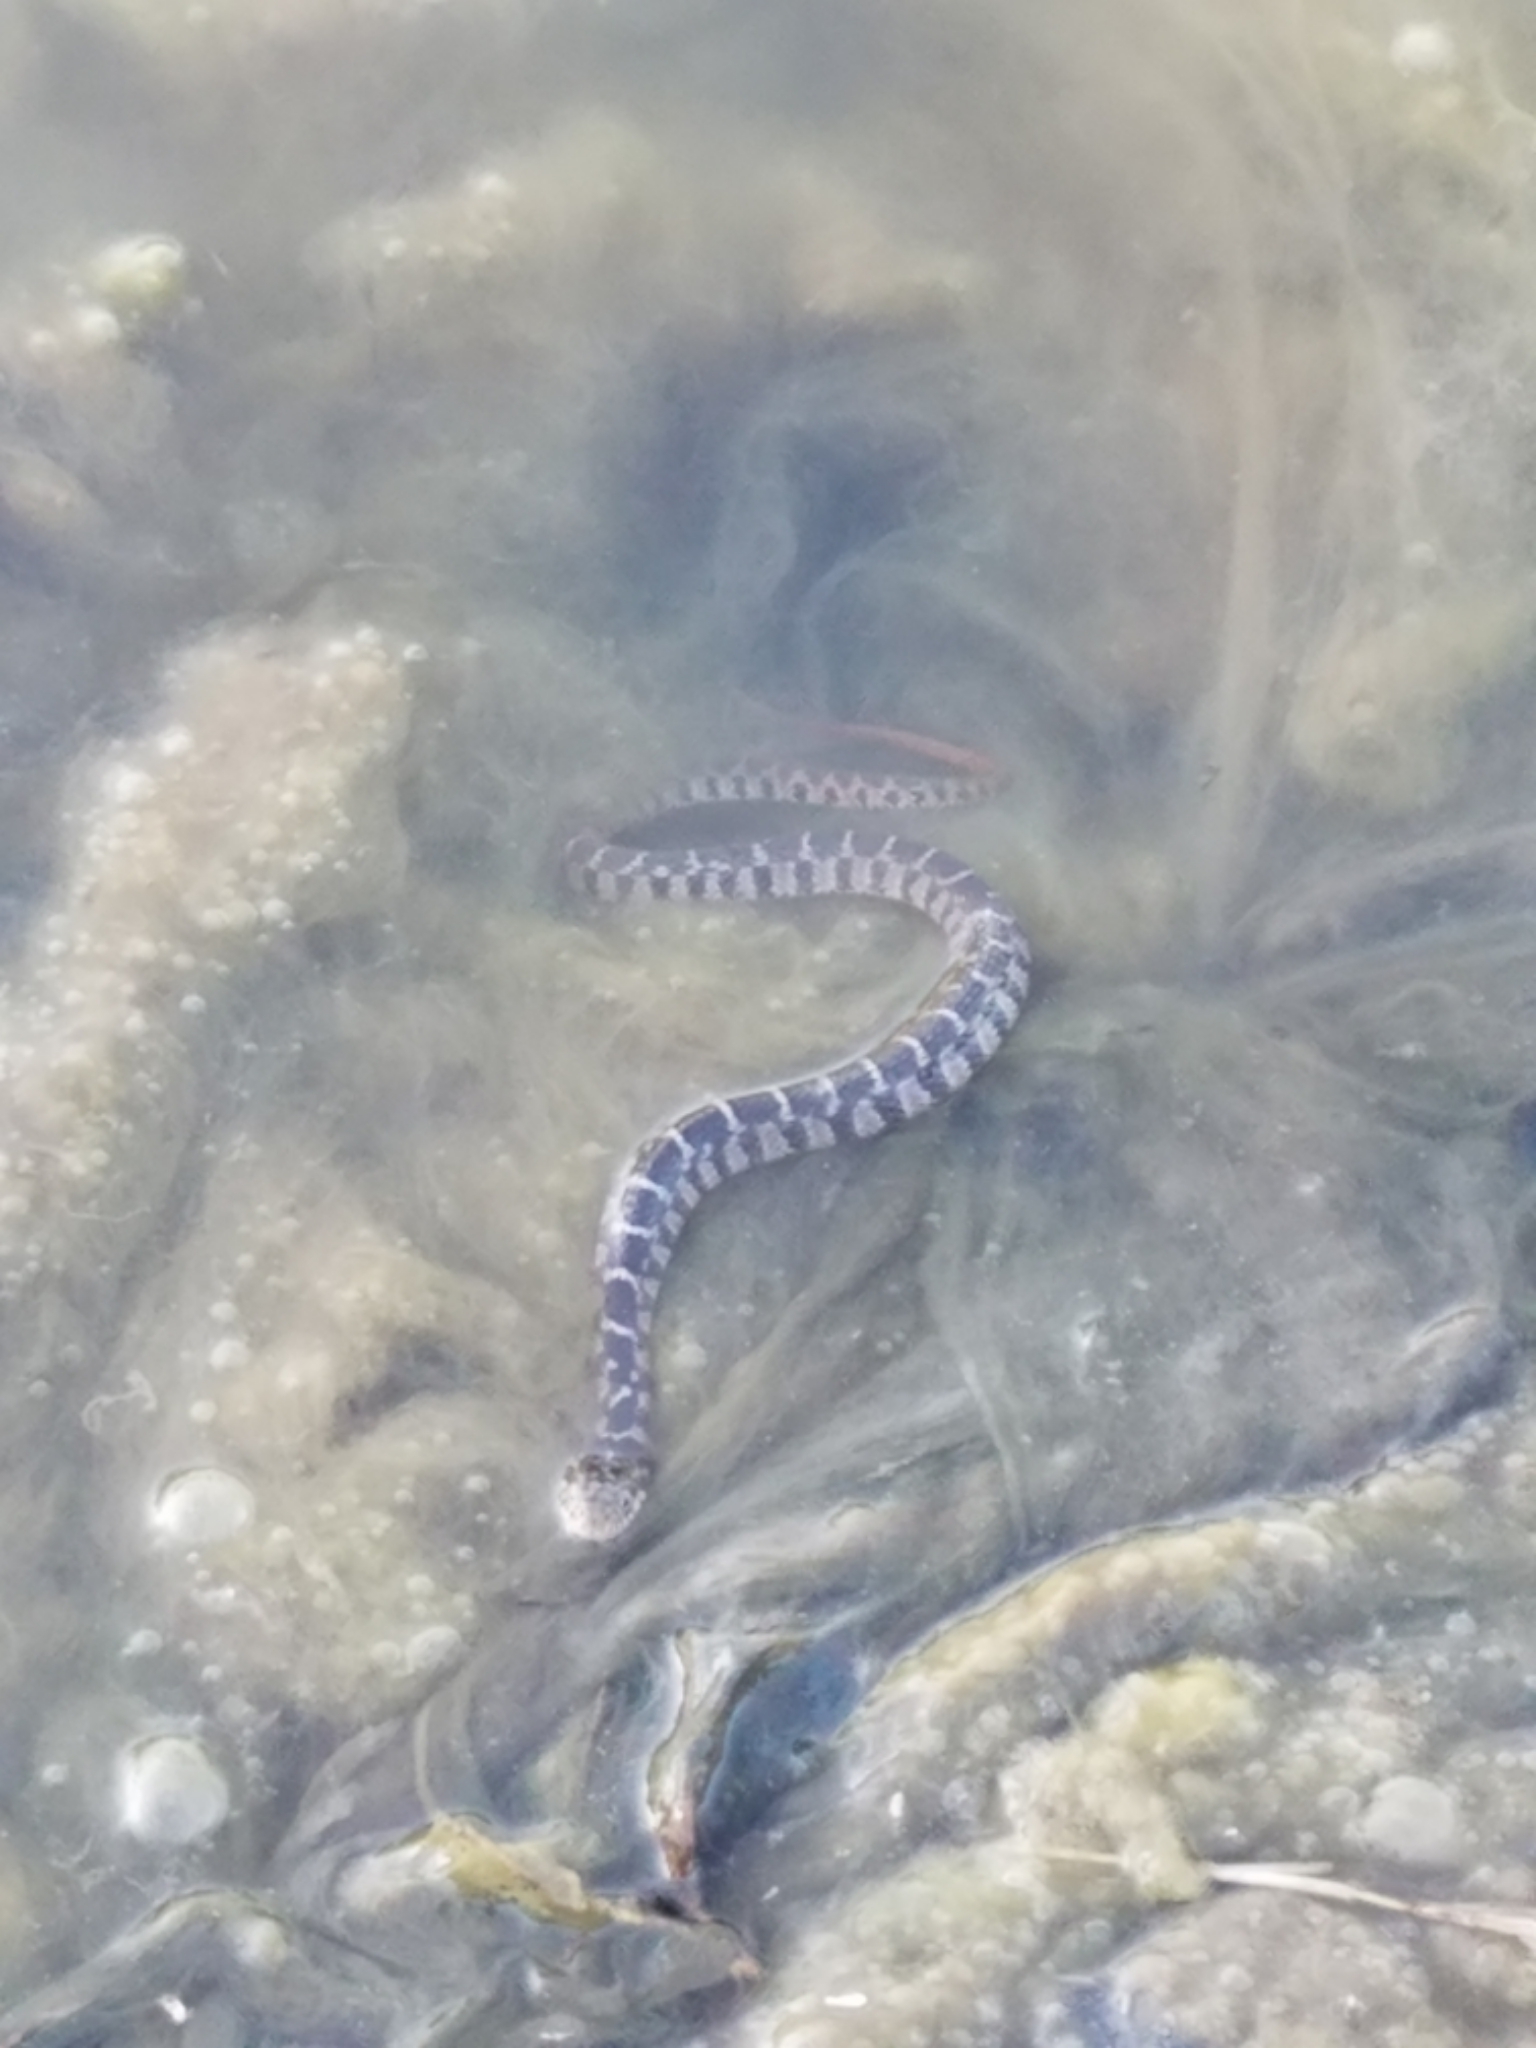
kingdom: Animalia
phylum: Chordata
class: Squamata
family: Colubridae
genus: Nerodia
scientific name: Nerodia erythrogaster
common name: Plainbelly water snake
